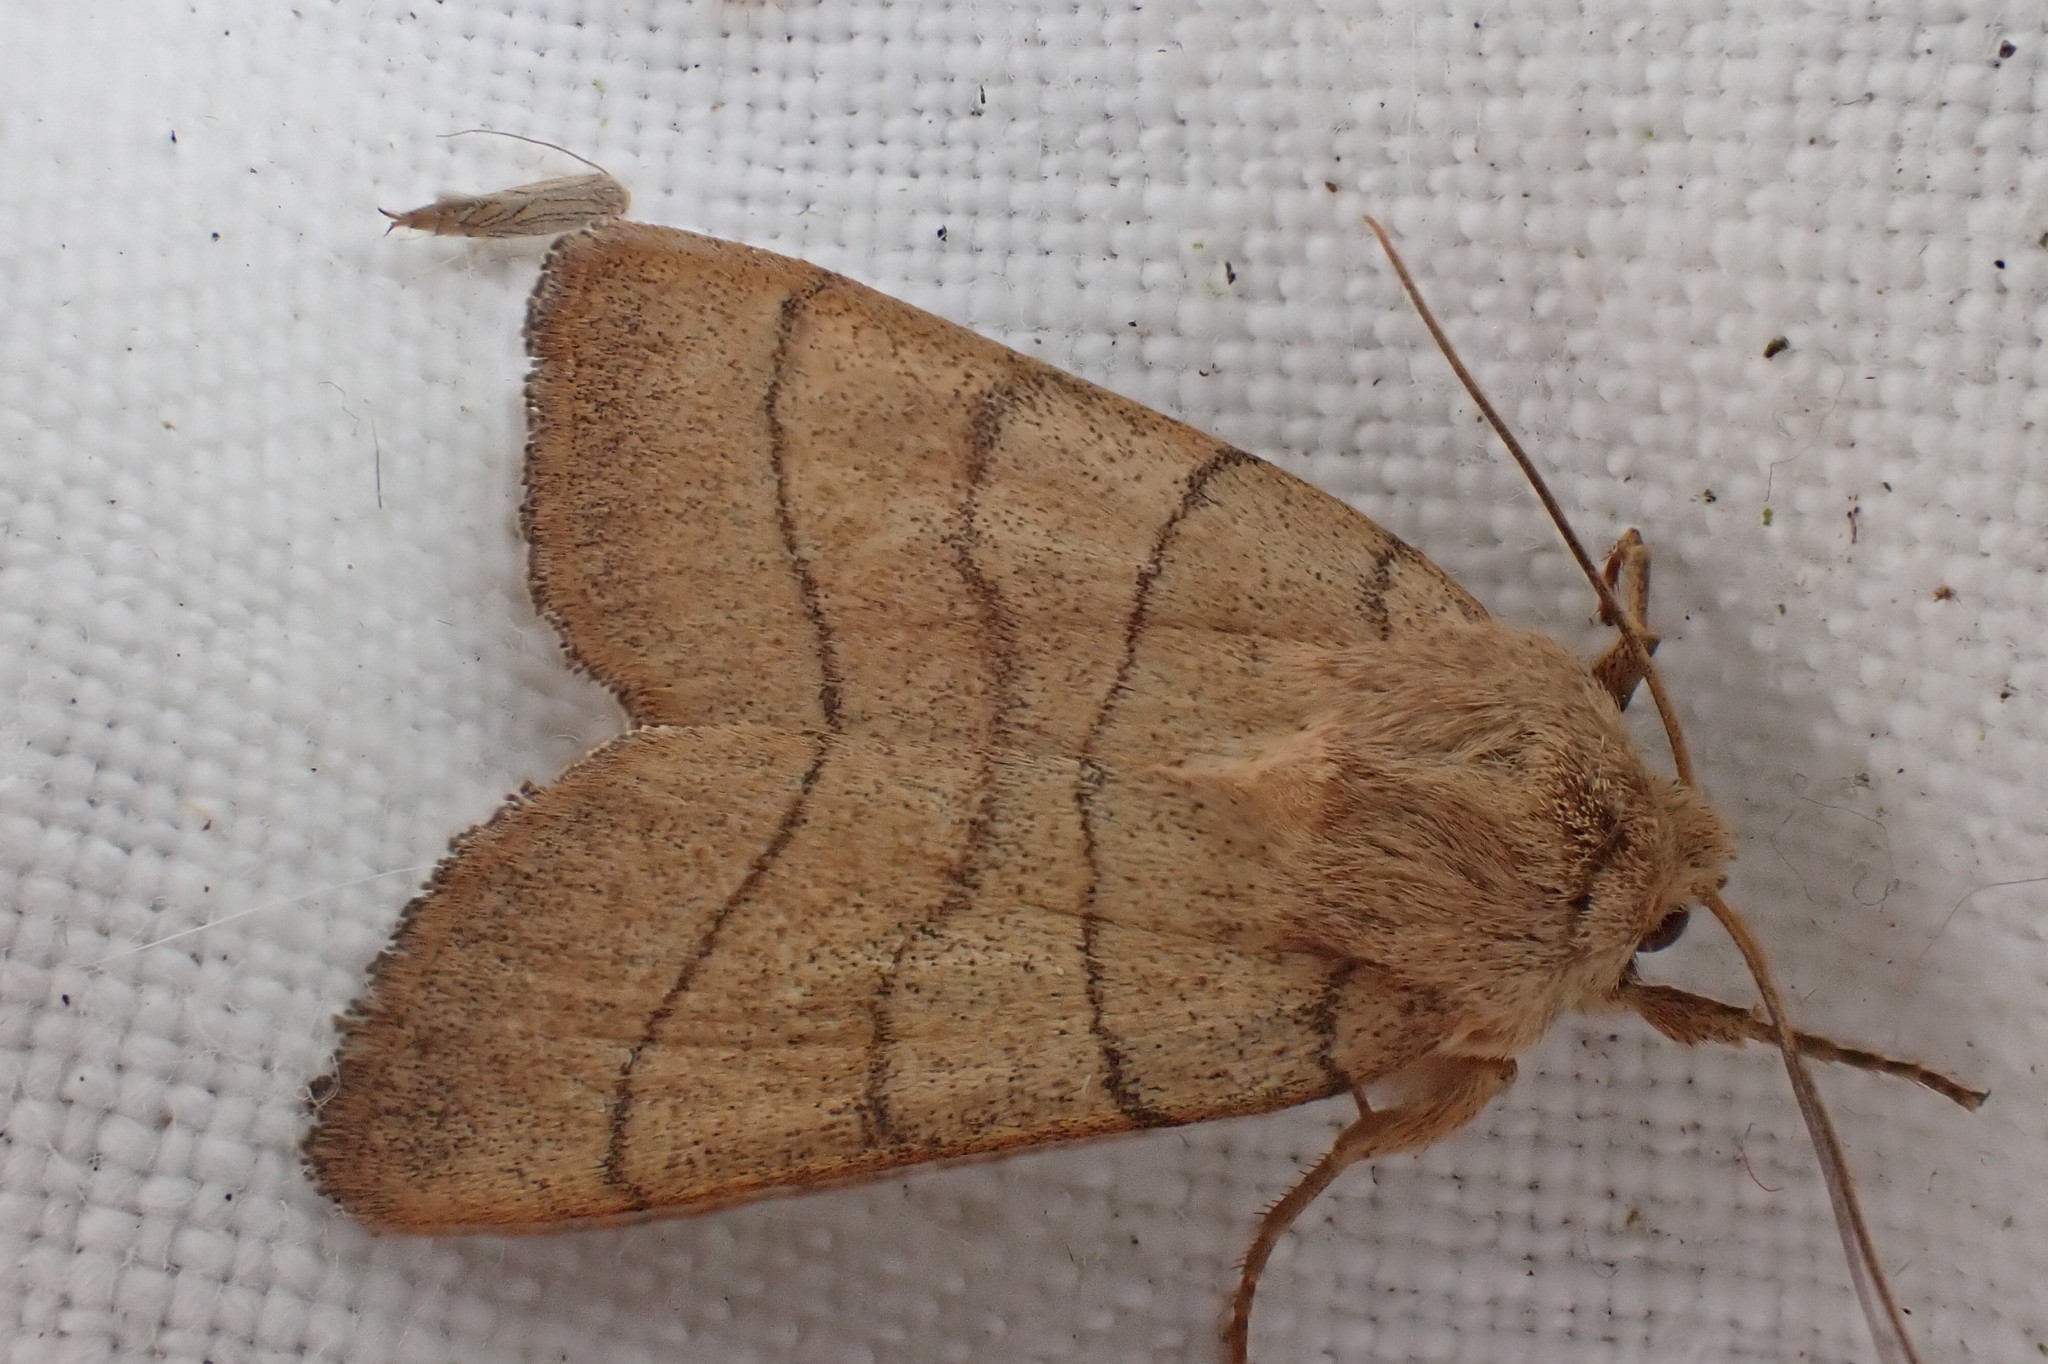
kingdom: Animalia
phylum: Arthropoda
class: Insecta
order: Lepidoptera
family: Noctuidae
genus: Charanyca
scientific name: Charanyca trigrammica
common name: Treble lines
